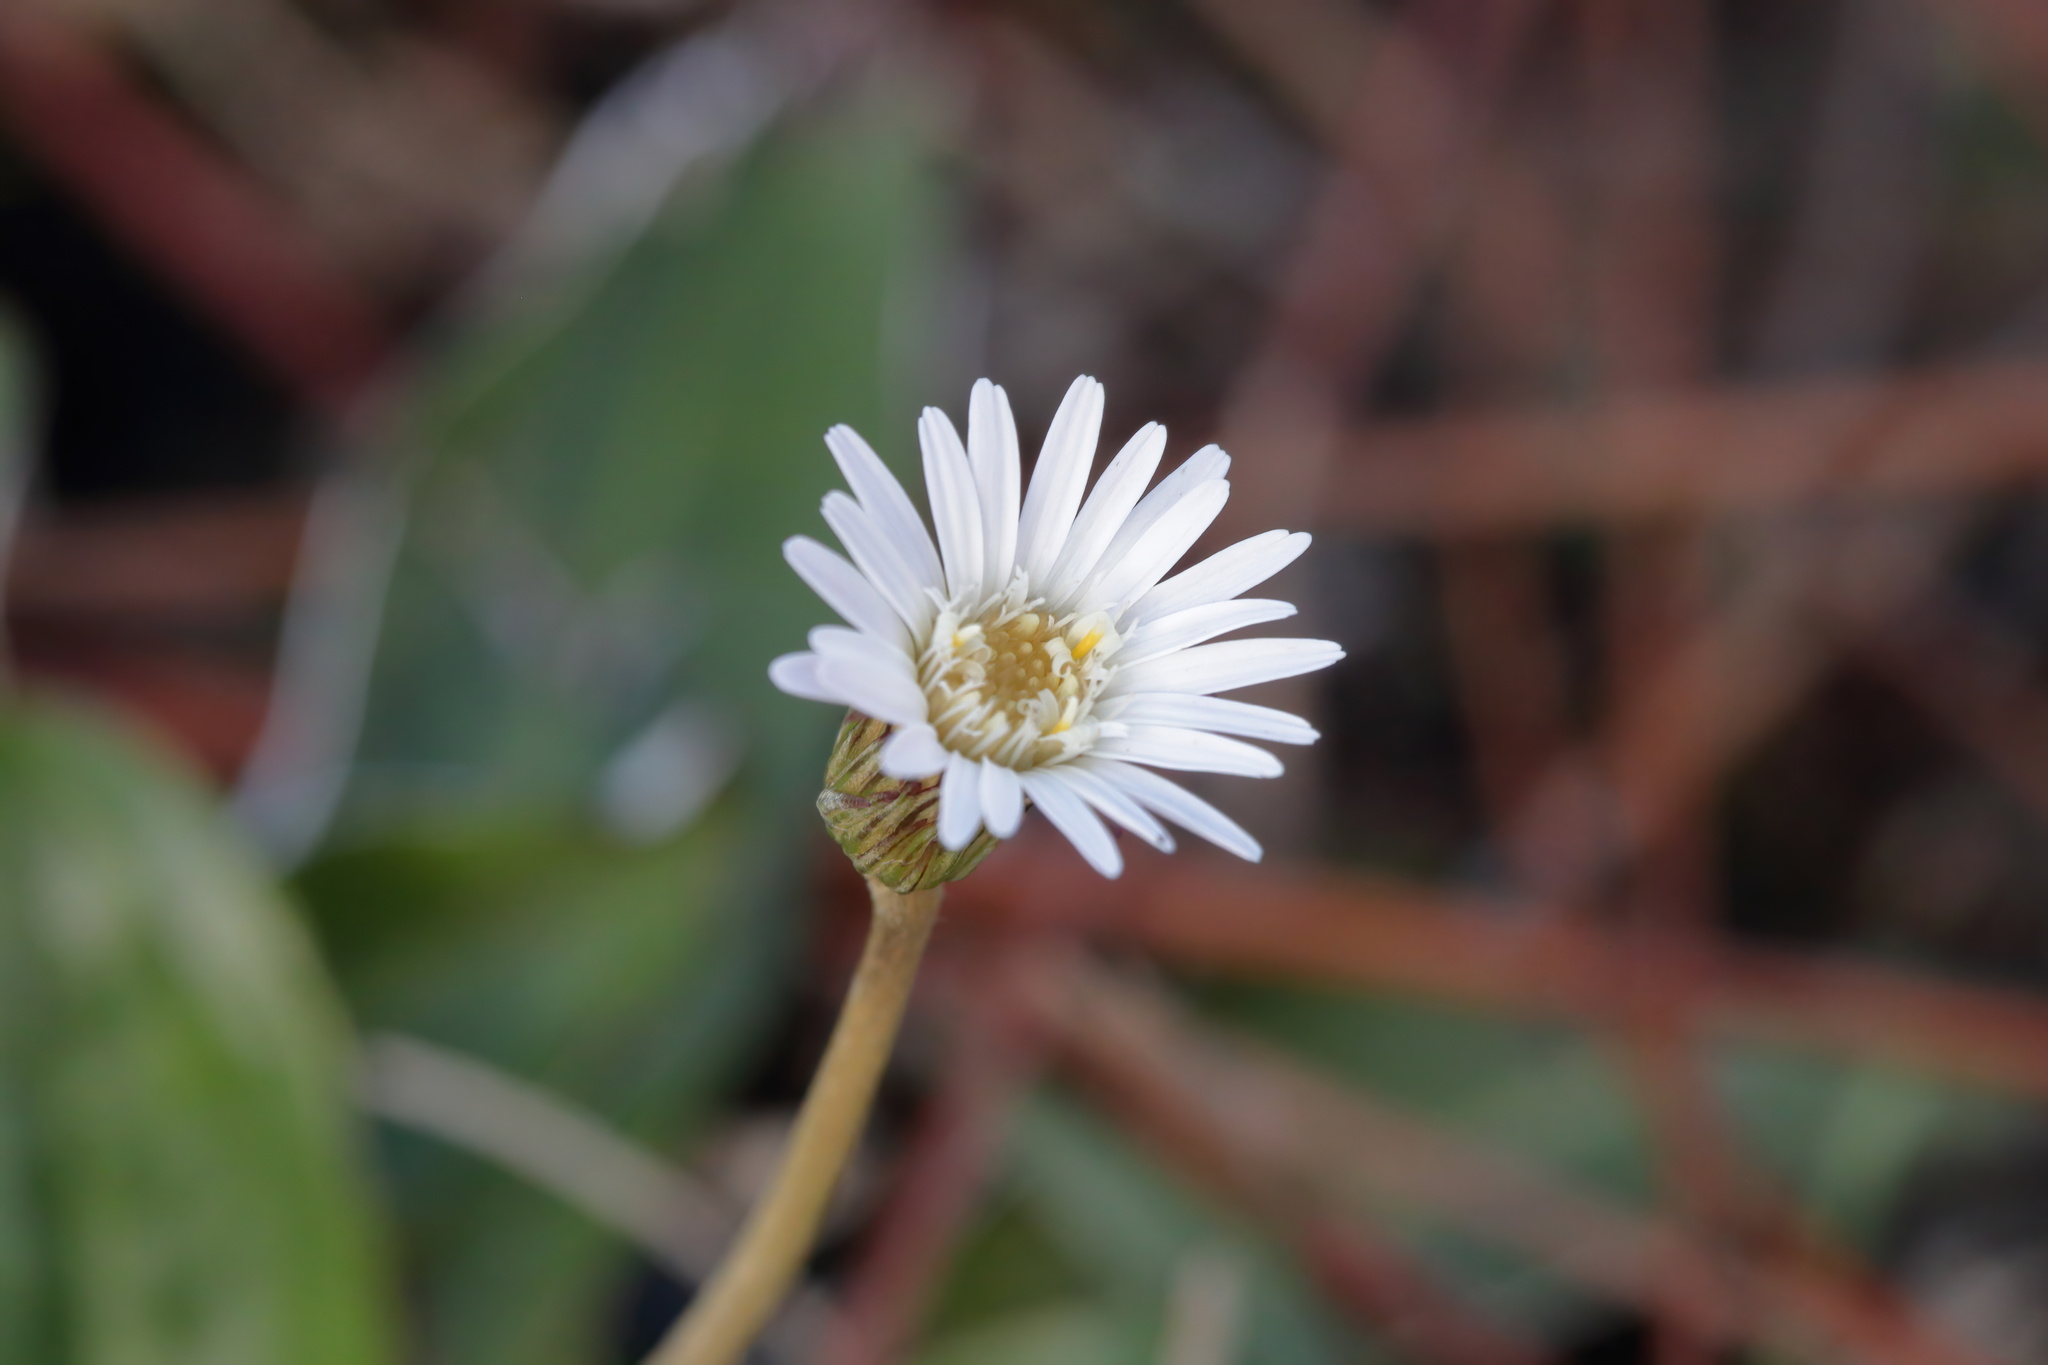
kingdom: Plantae
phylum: Tracheophyta
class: Magnoliopsida
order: Asterales
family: Asteraceae
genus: Chaptalia
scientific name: Chaptalia tomentosa
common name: Woolly sunbonnet
